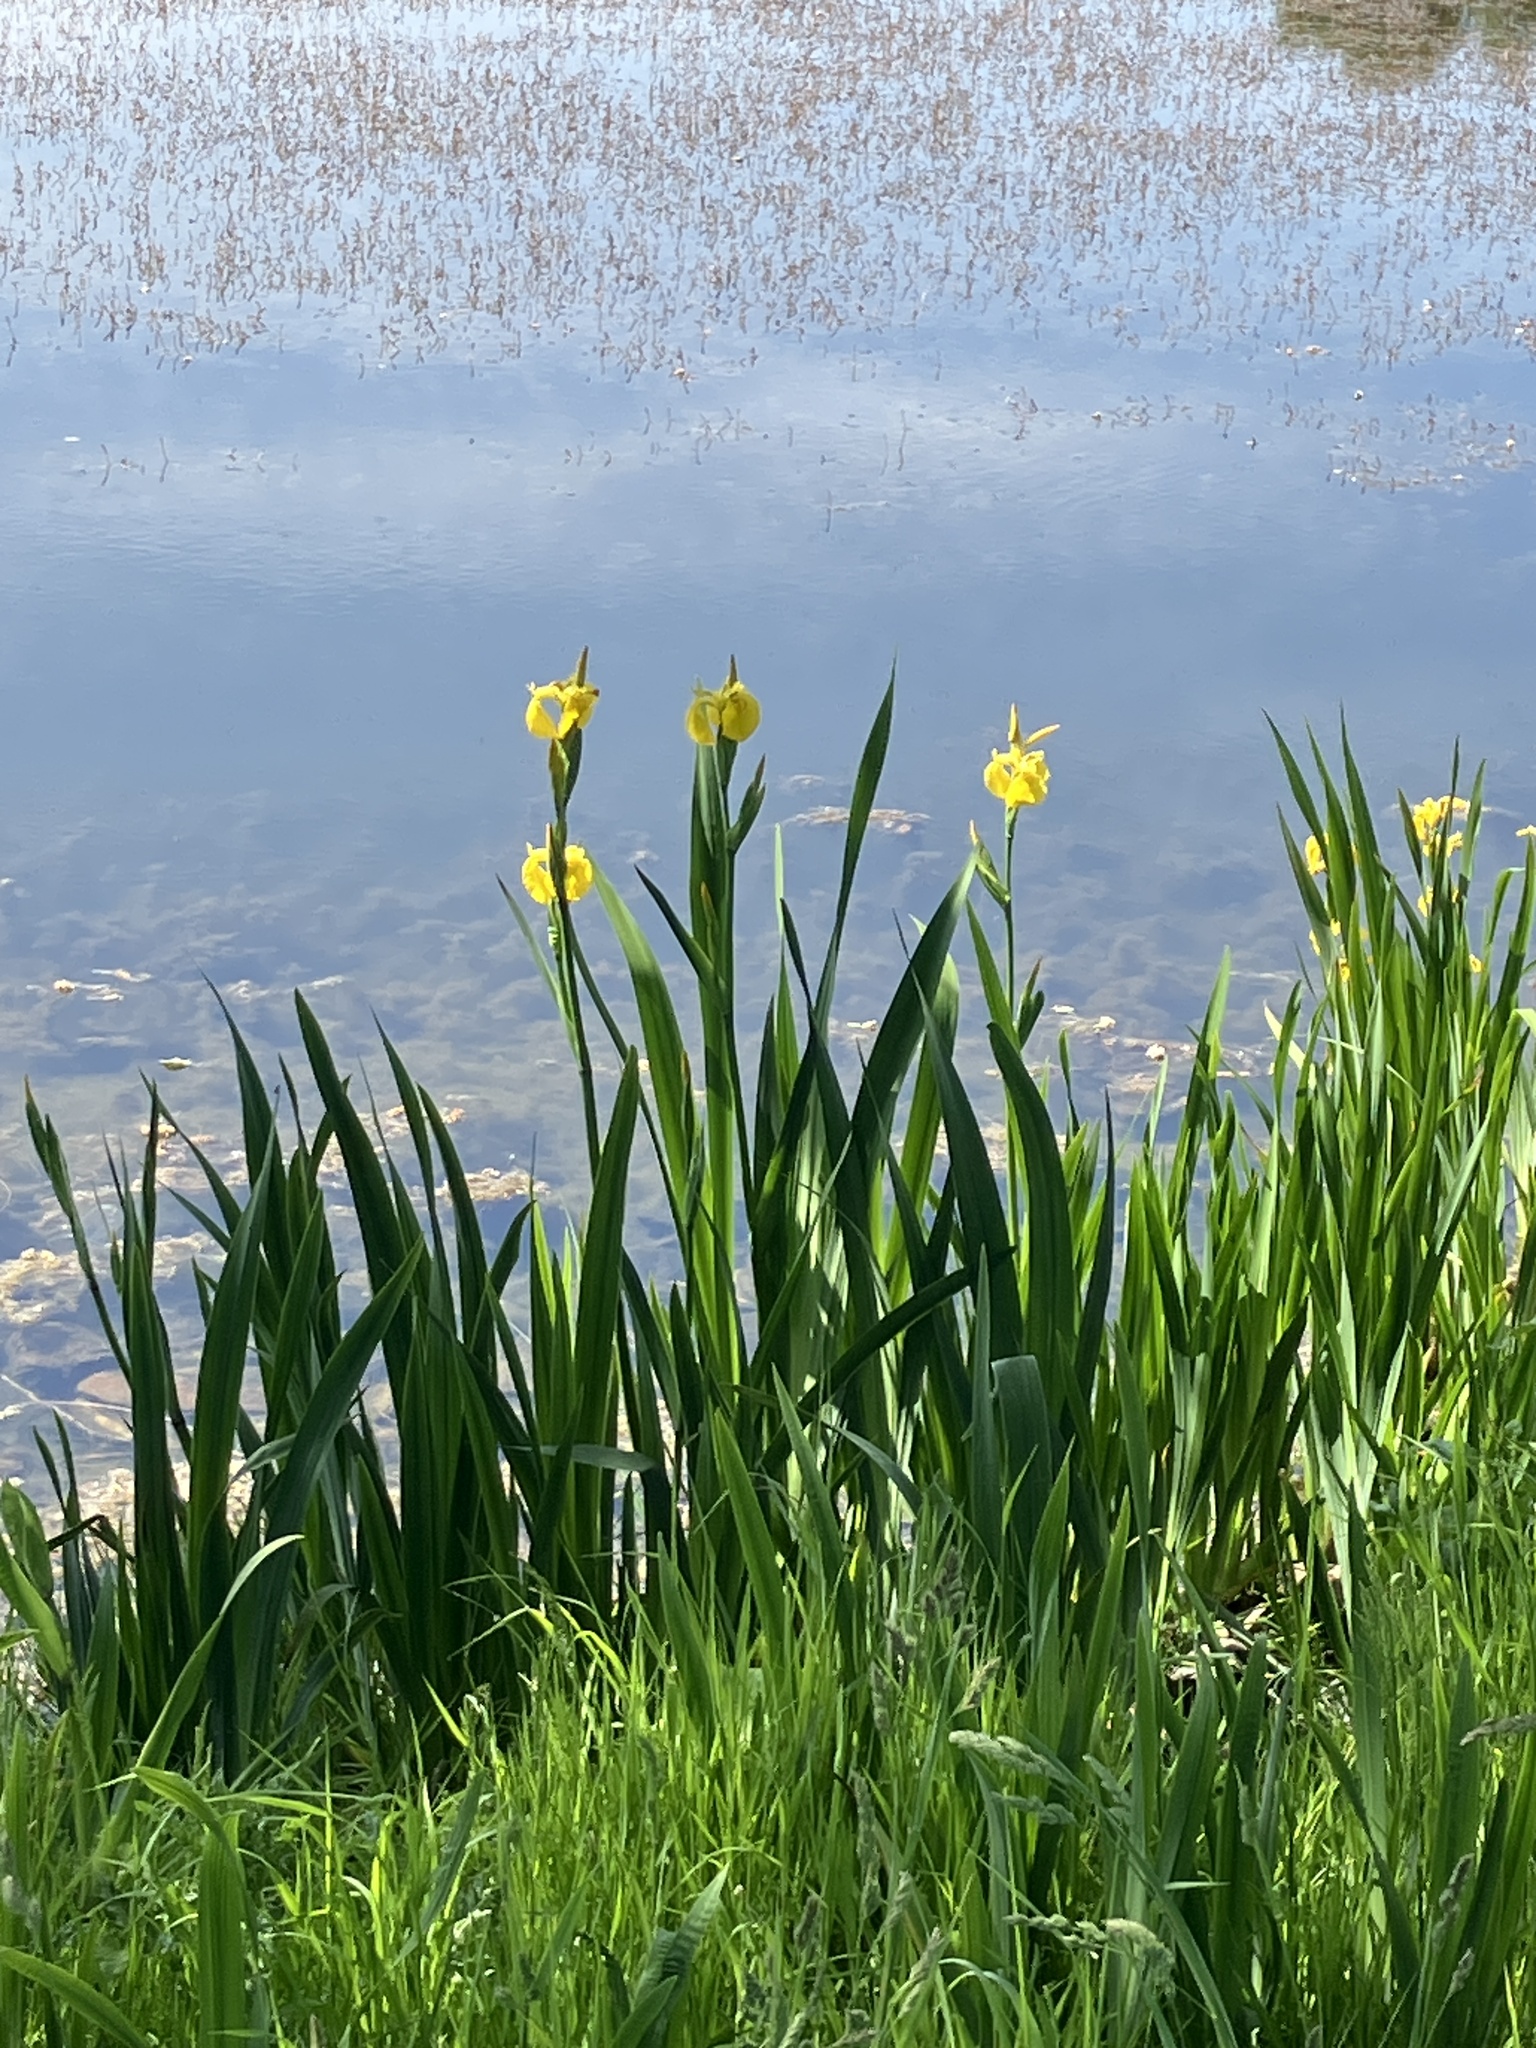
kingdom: Plantae
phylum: Tracheophyta
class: Liliopsida
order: Asparagales
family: Iridaceae
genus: Iris
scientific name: Iris pseudacorus
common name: Yellow flag
